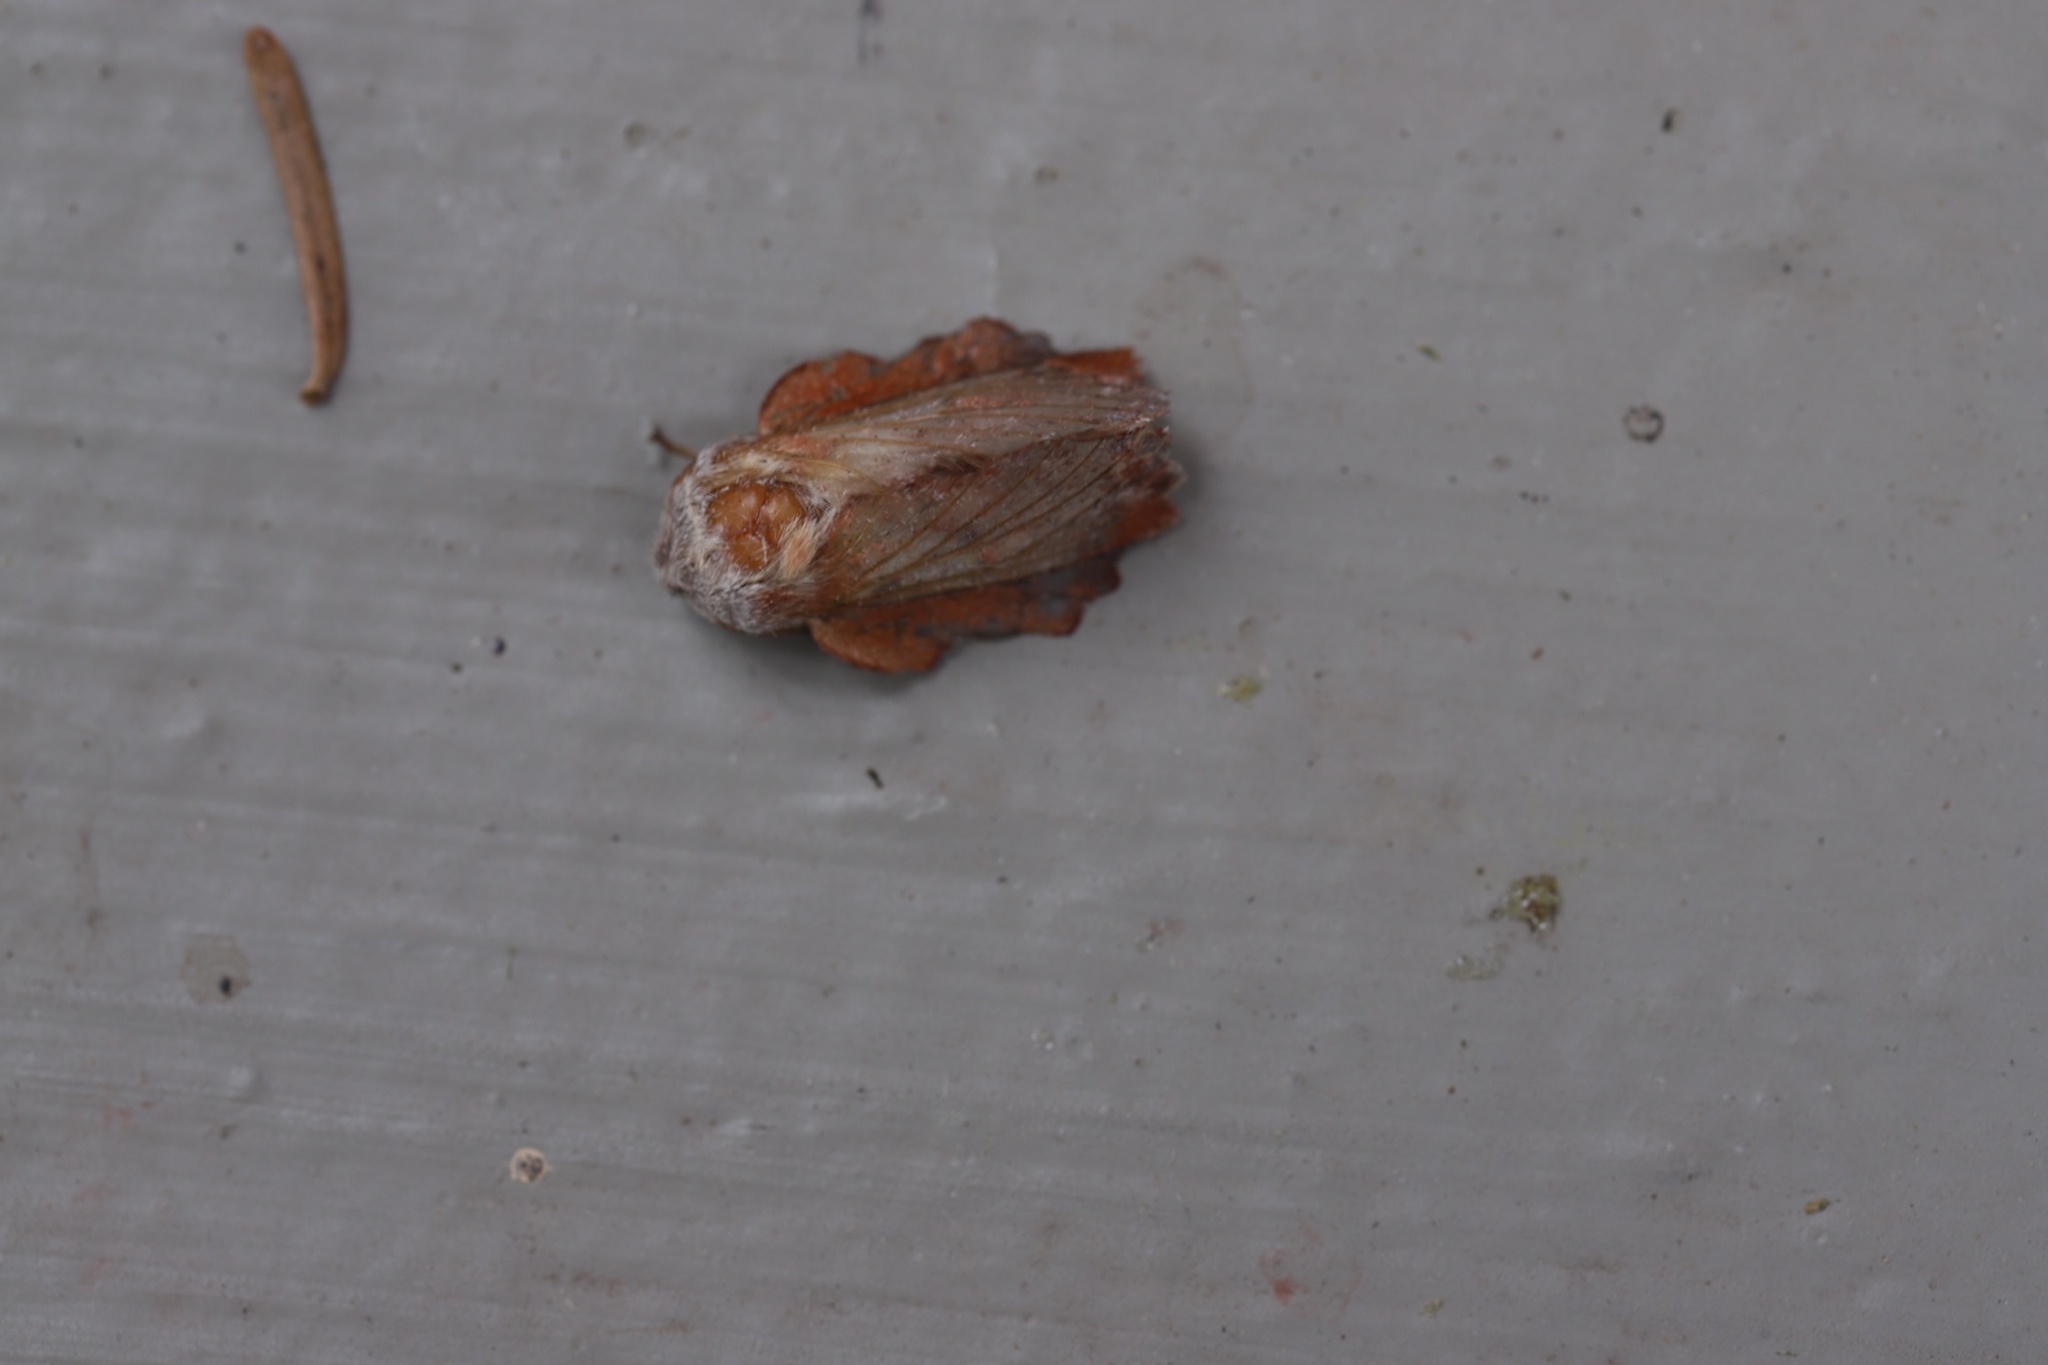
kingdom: Animalia
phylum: Arthropoda
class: Insecta
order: Lepidoptera
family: Lasiocampidae
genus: Phyllodesma
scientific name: Phyllodesma americana
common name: American lappet moth
